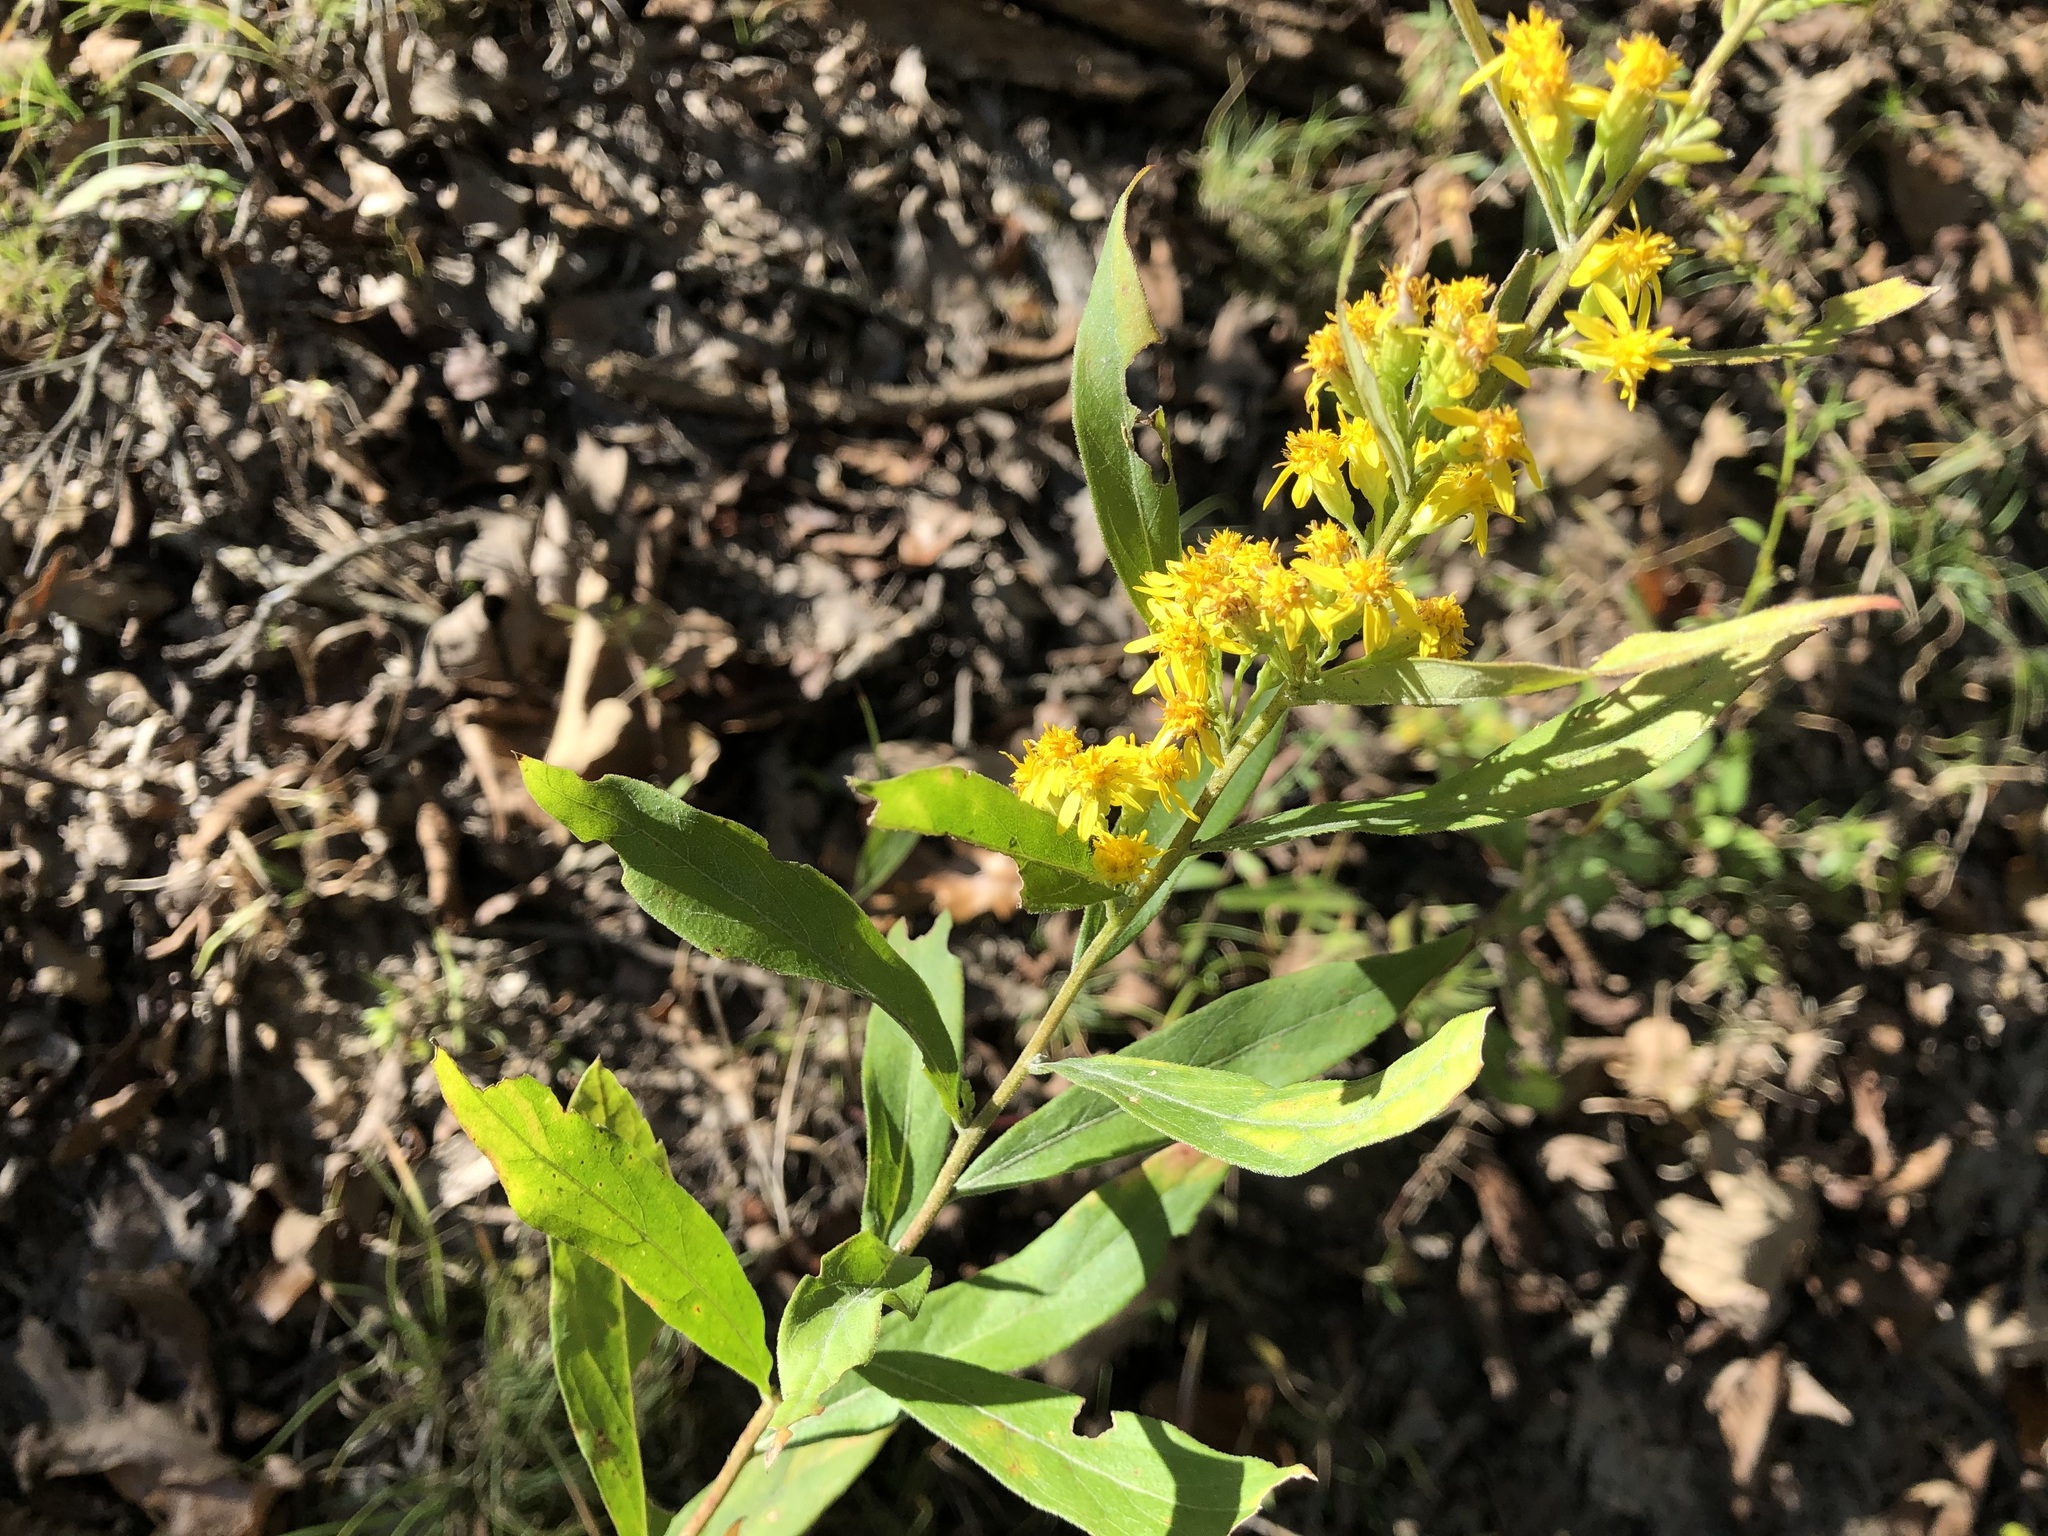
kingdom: Plantae
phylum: Tracheophyta
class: Magnoliopsida
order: Asterales
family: Asteraceae
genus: Solidago
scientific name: Solidago petiolaris
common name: Downy ragged goldenrod
